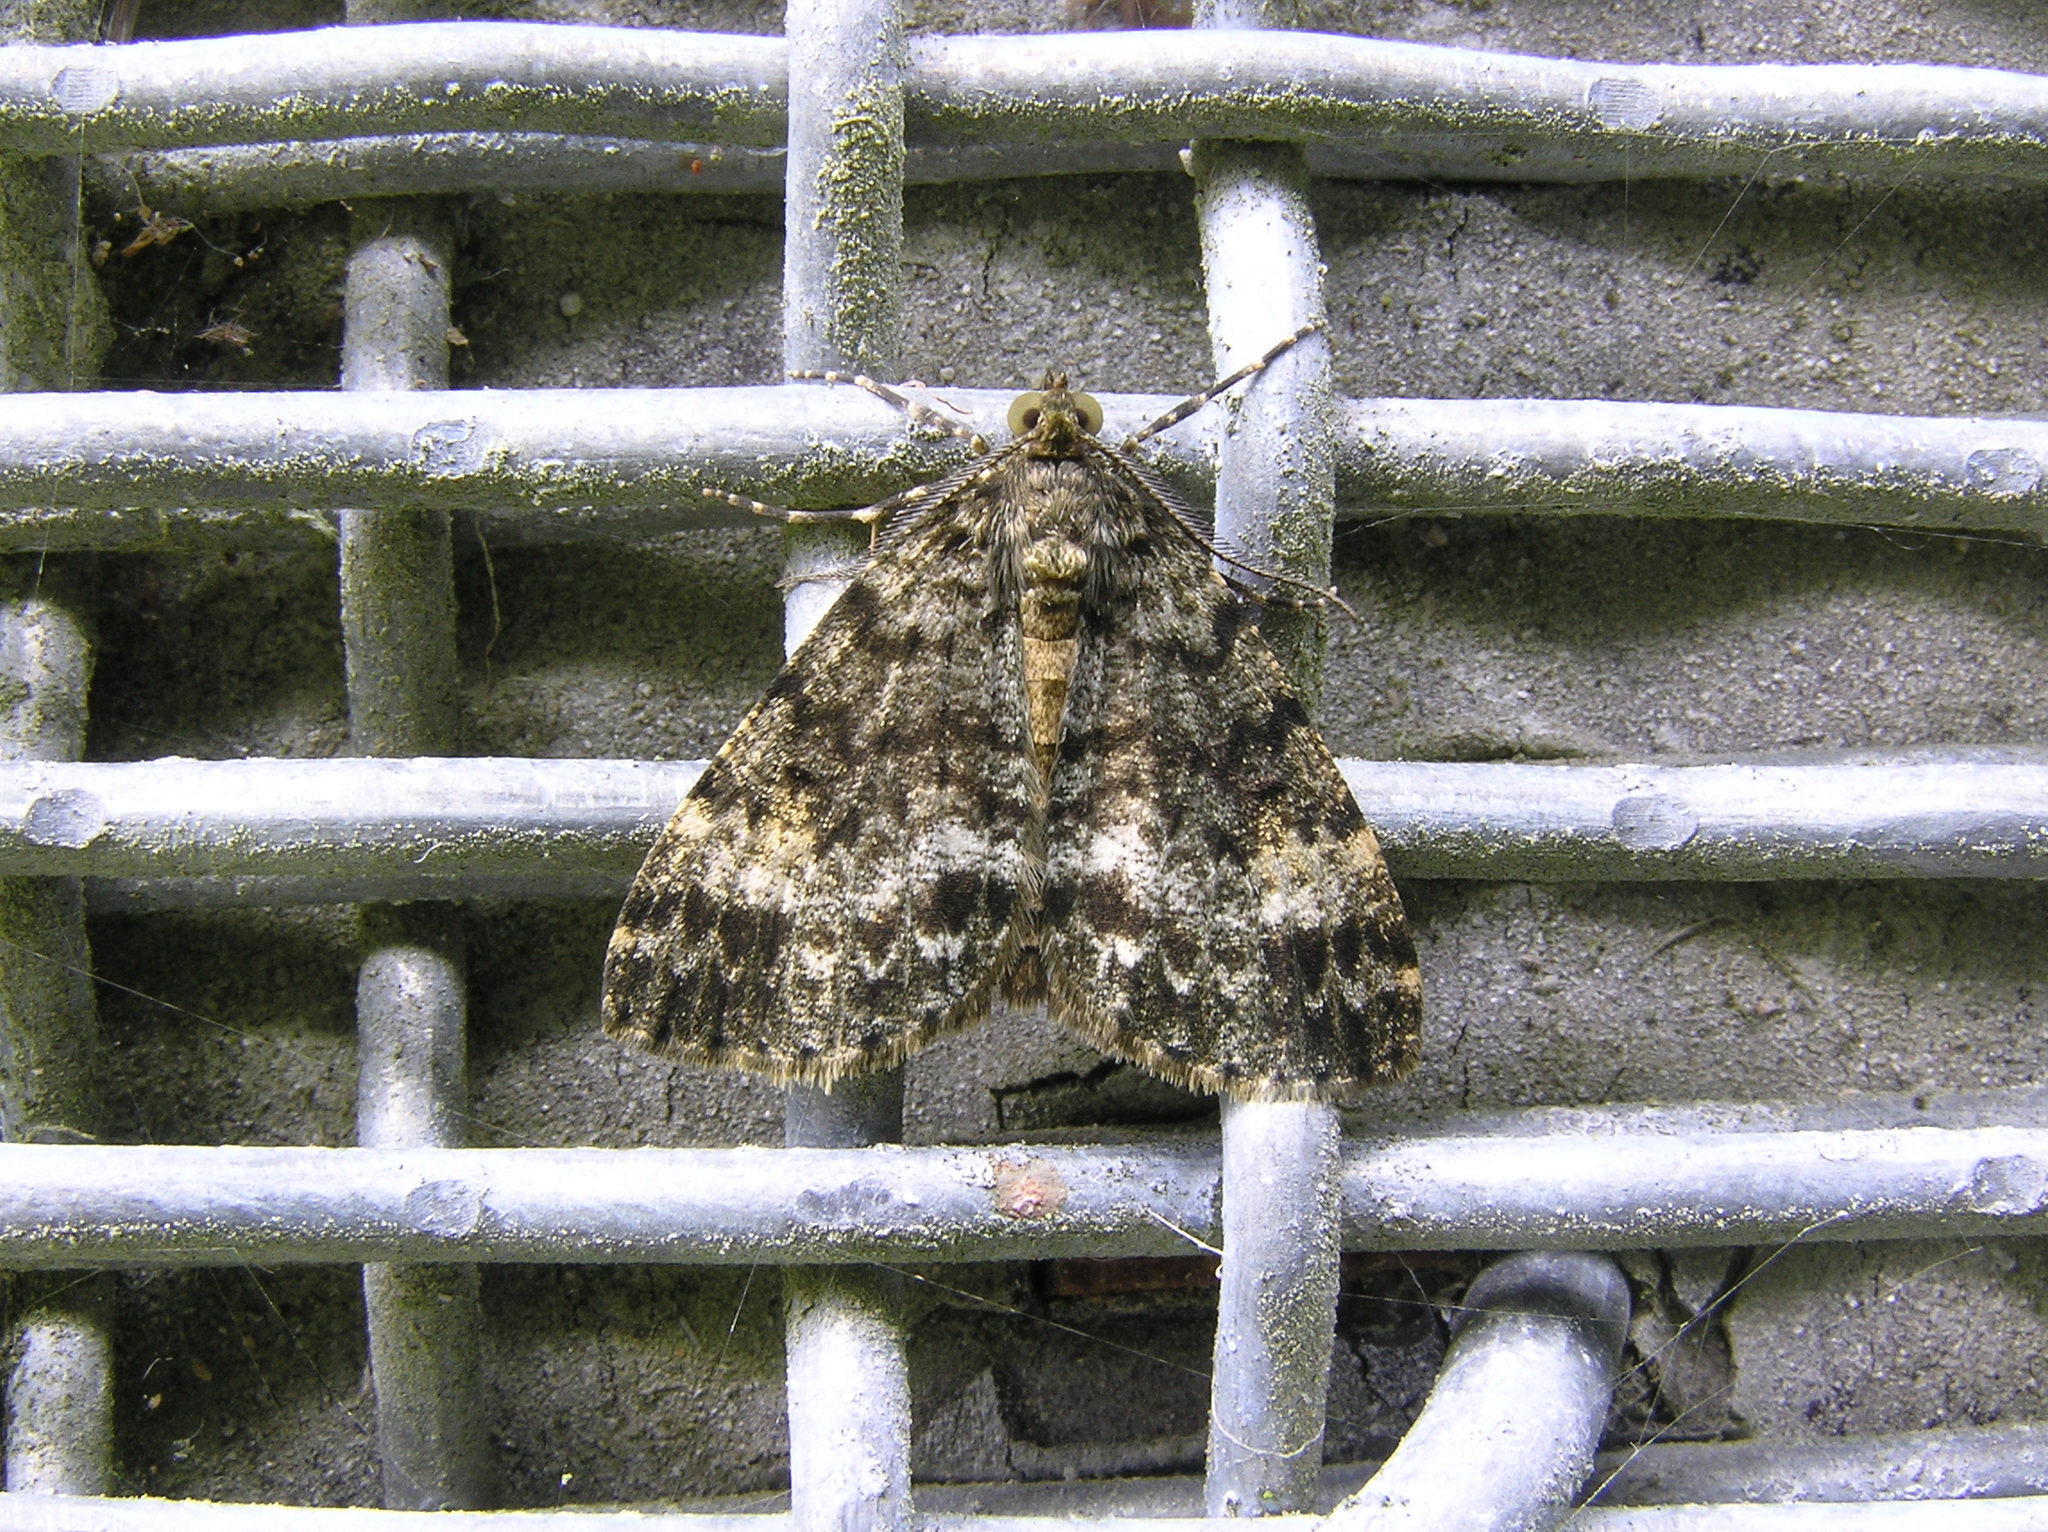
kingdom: Animalia
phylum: Arthropoda
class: Insecta
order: Lepidoptera
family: Geometridae
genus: Pseudocoremia
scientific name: Pseudocoremia indistincta
